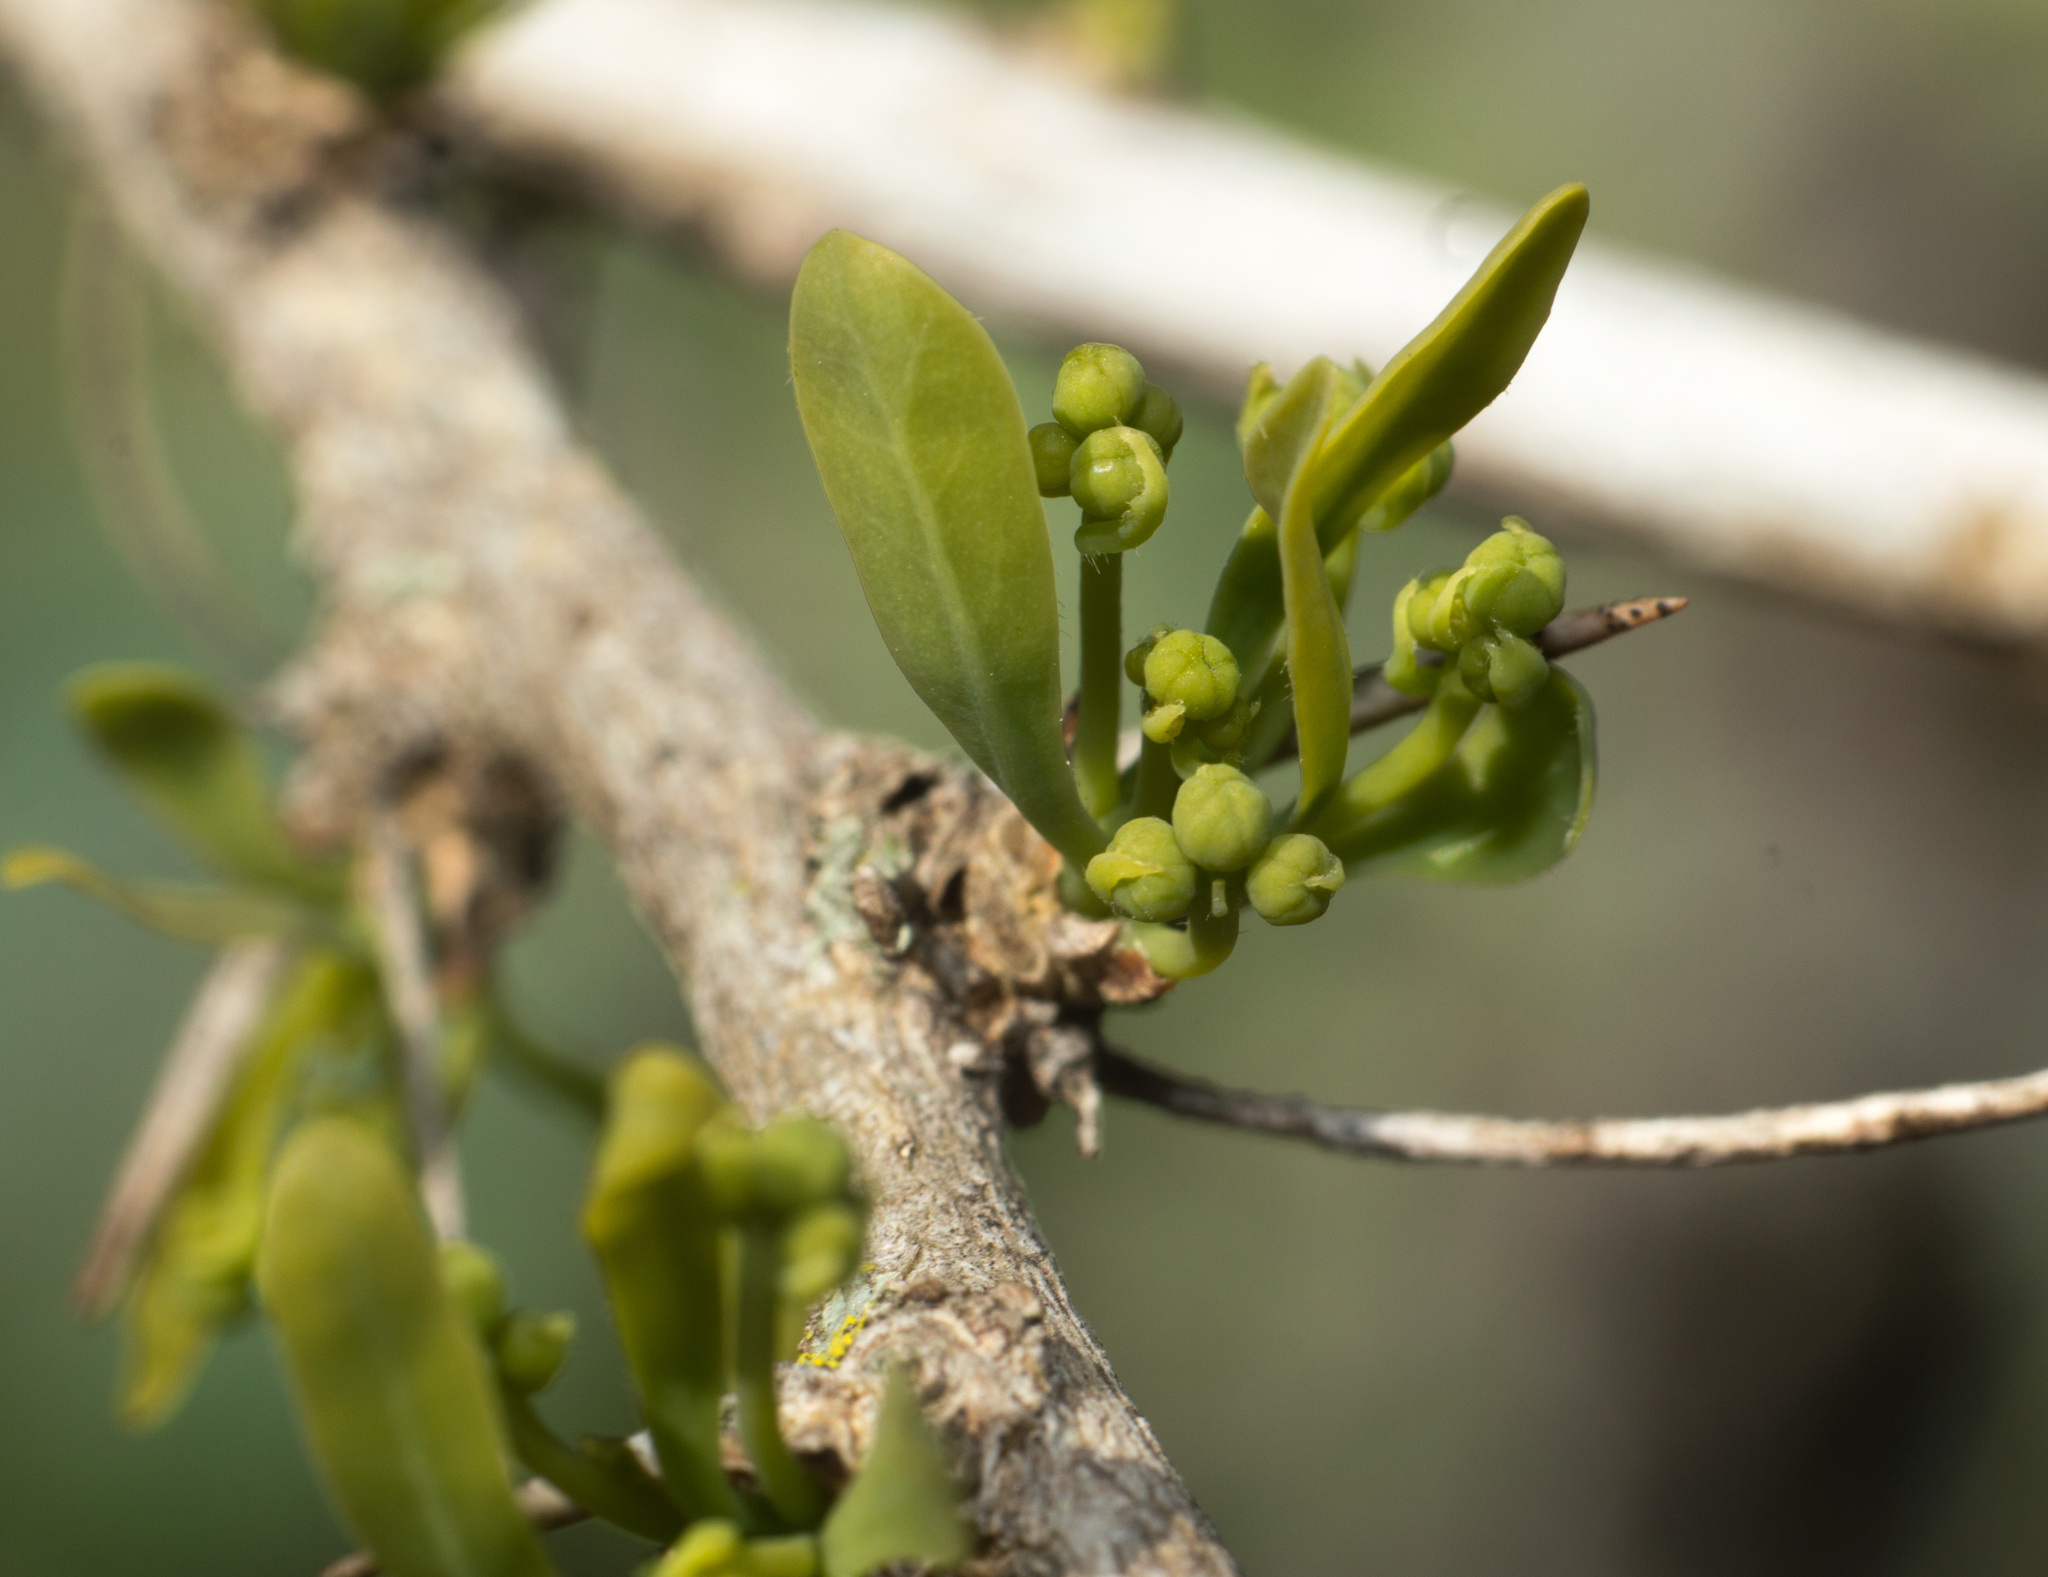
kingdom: Plantae
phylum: Tracheophyta
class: Magnoliopsida
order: Santalales
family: Cervantesiaceae
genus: Acanthosyris
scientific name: Acanthosyris spinescens
